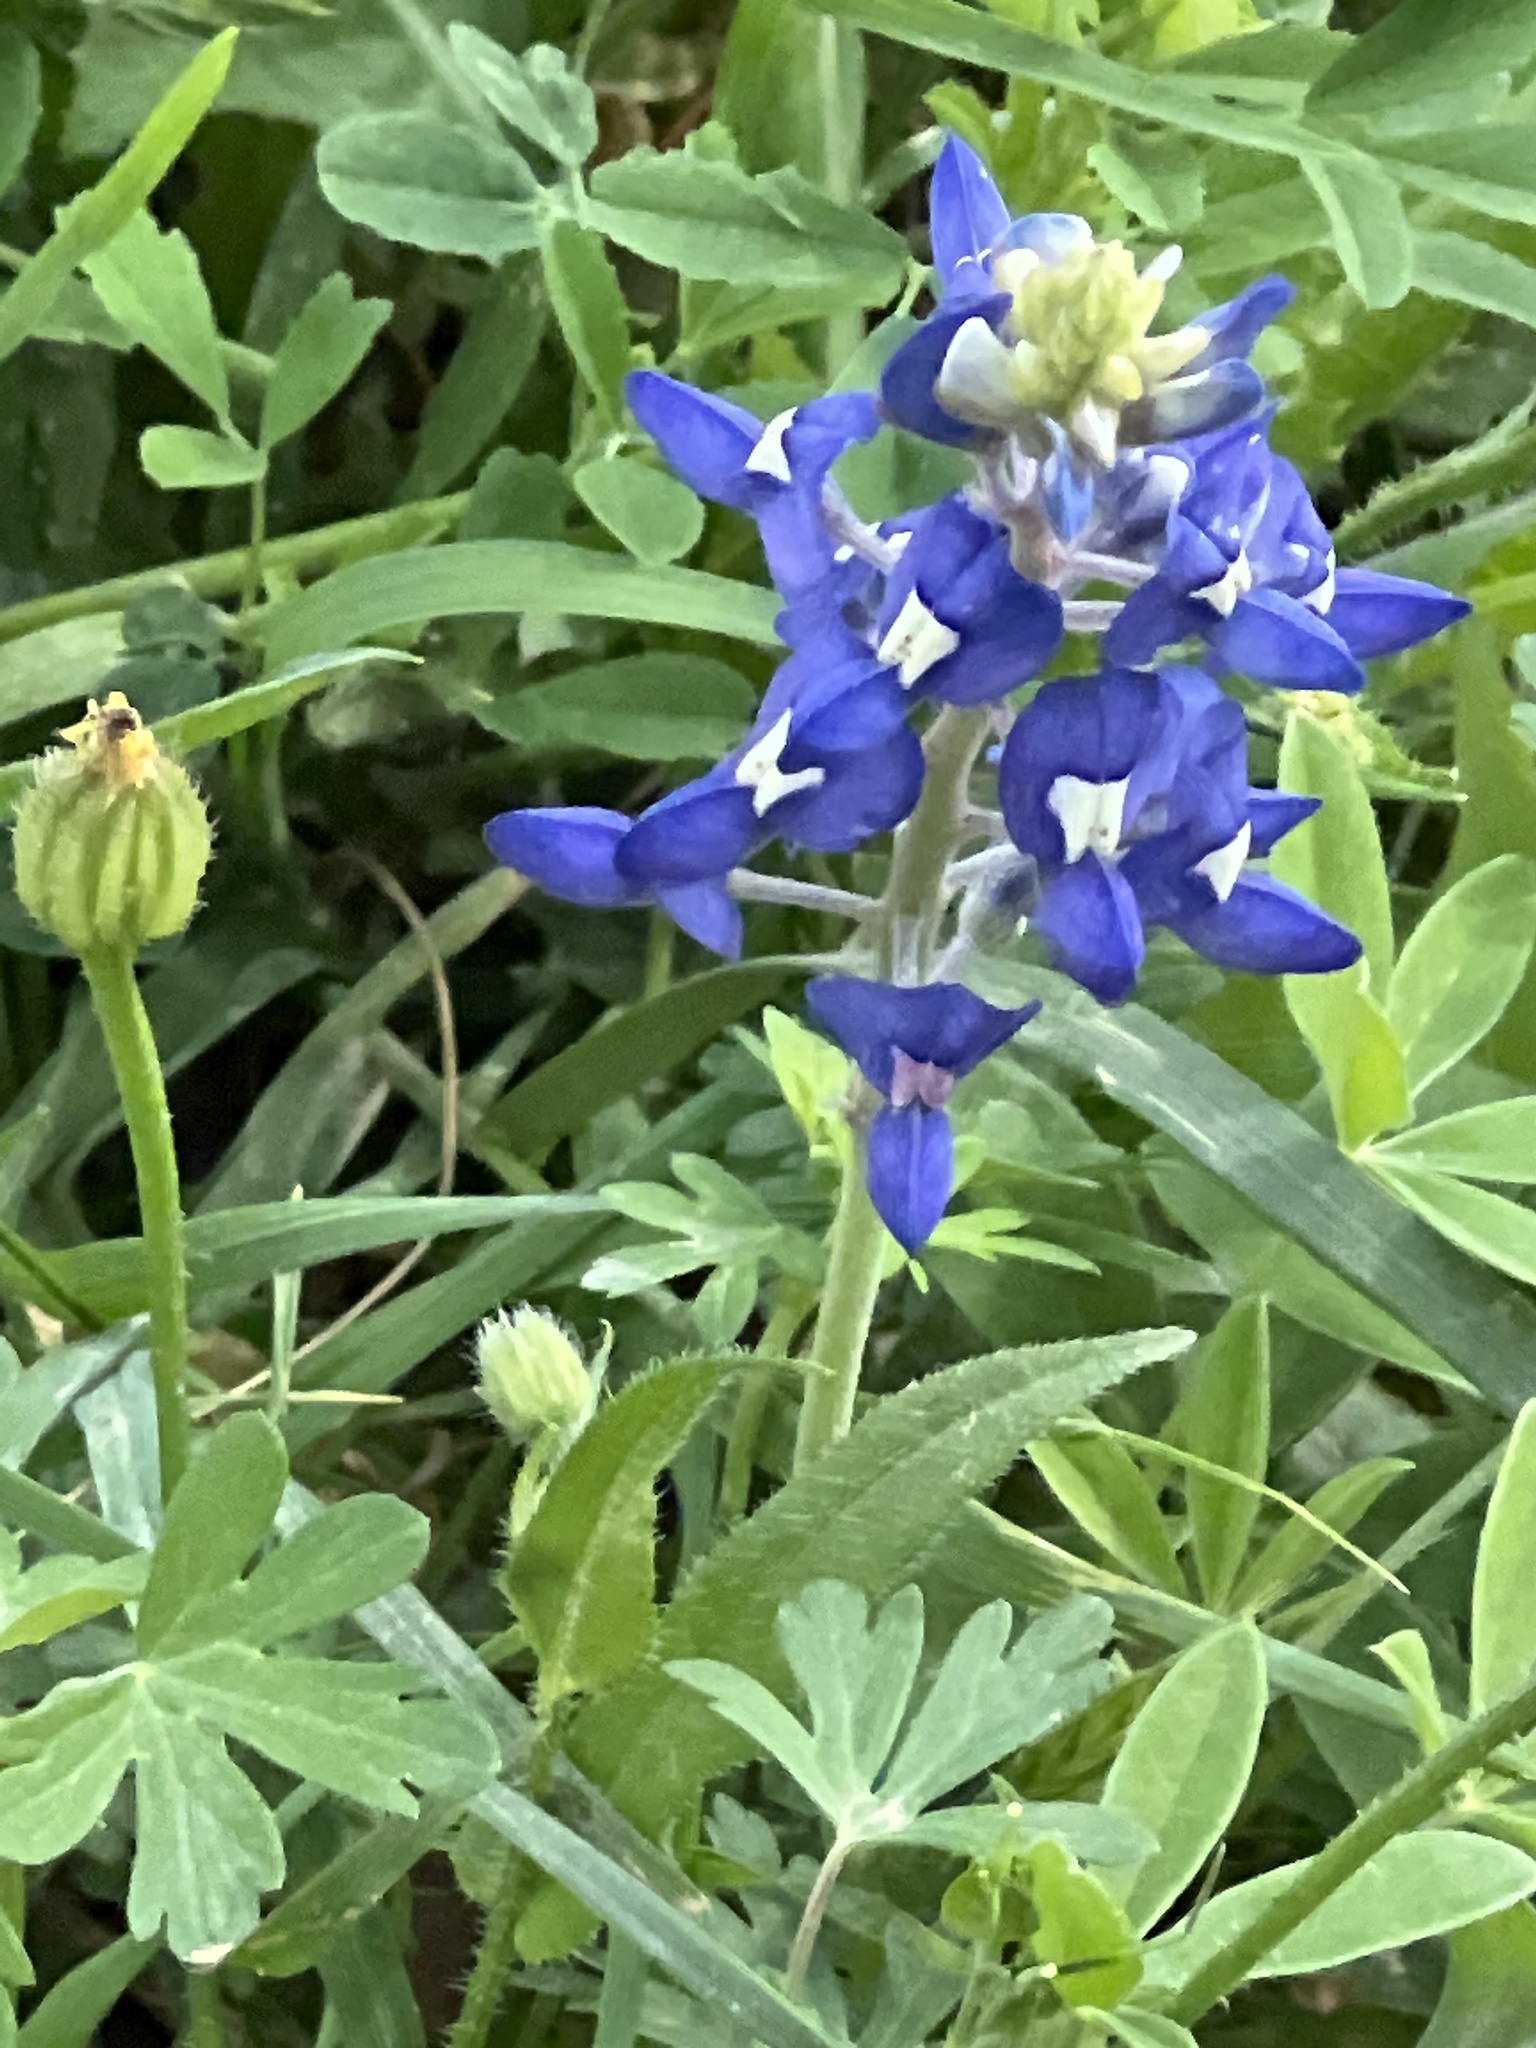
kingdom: Plantae
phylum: Tracheophyta
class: Magnoliopsida
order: Fabales
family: Fabaceae
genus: Lupinus
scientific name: Lupinus texensis
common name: Texas bluebonnet
